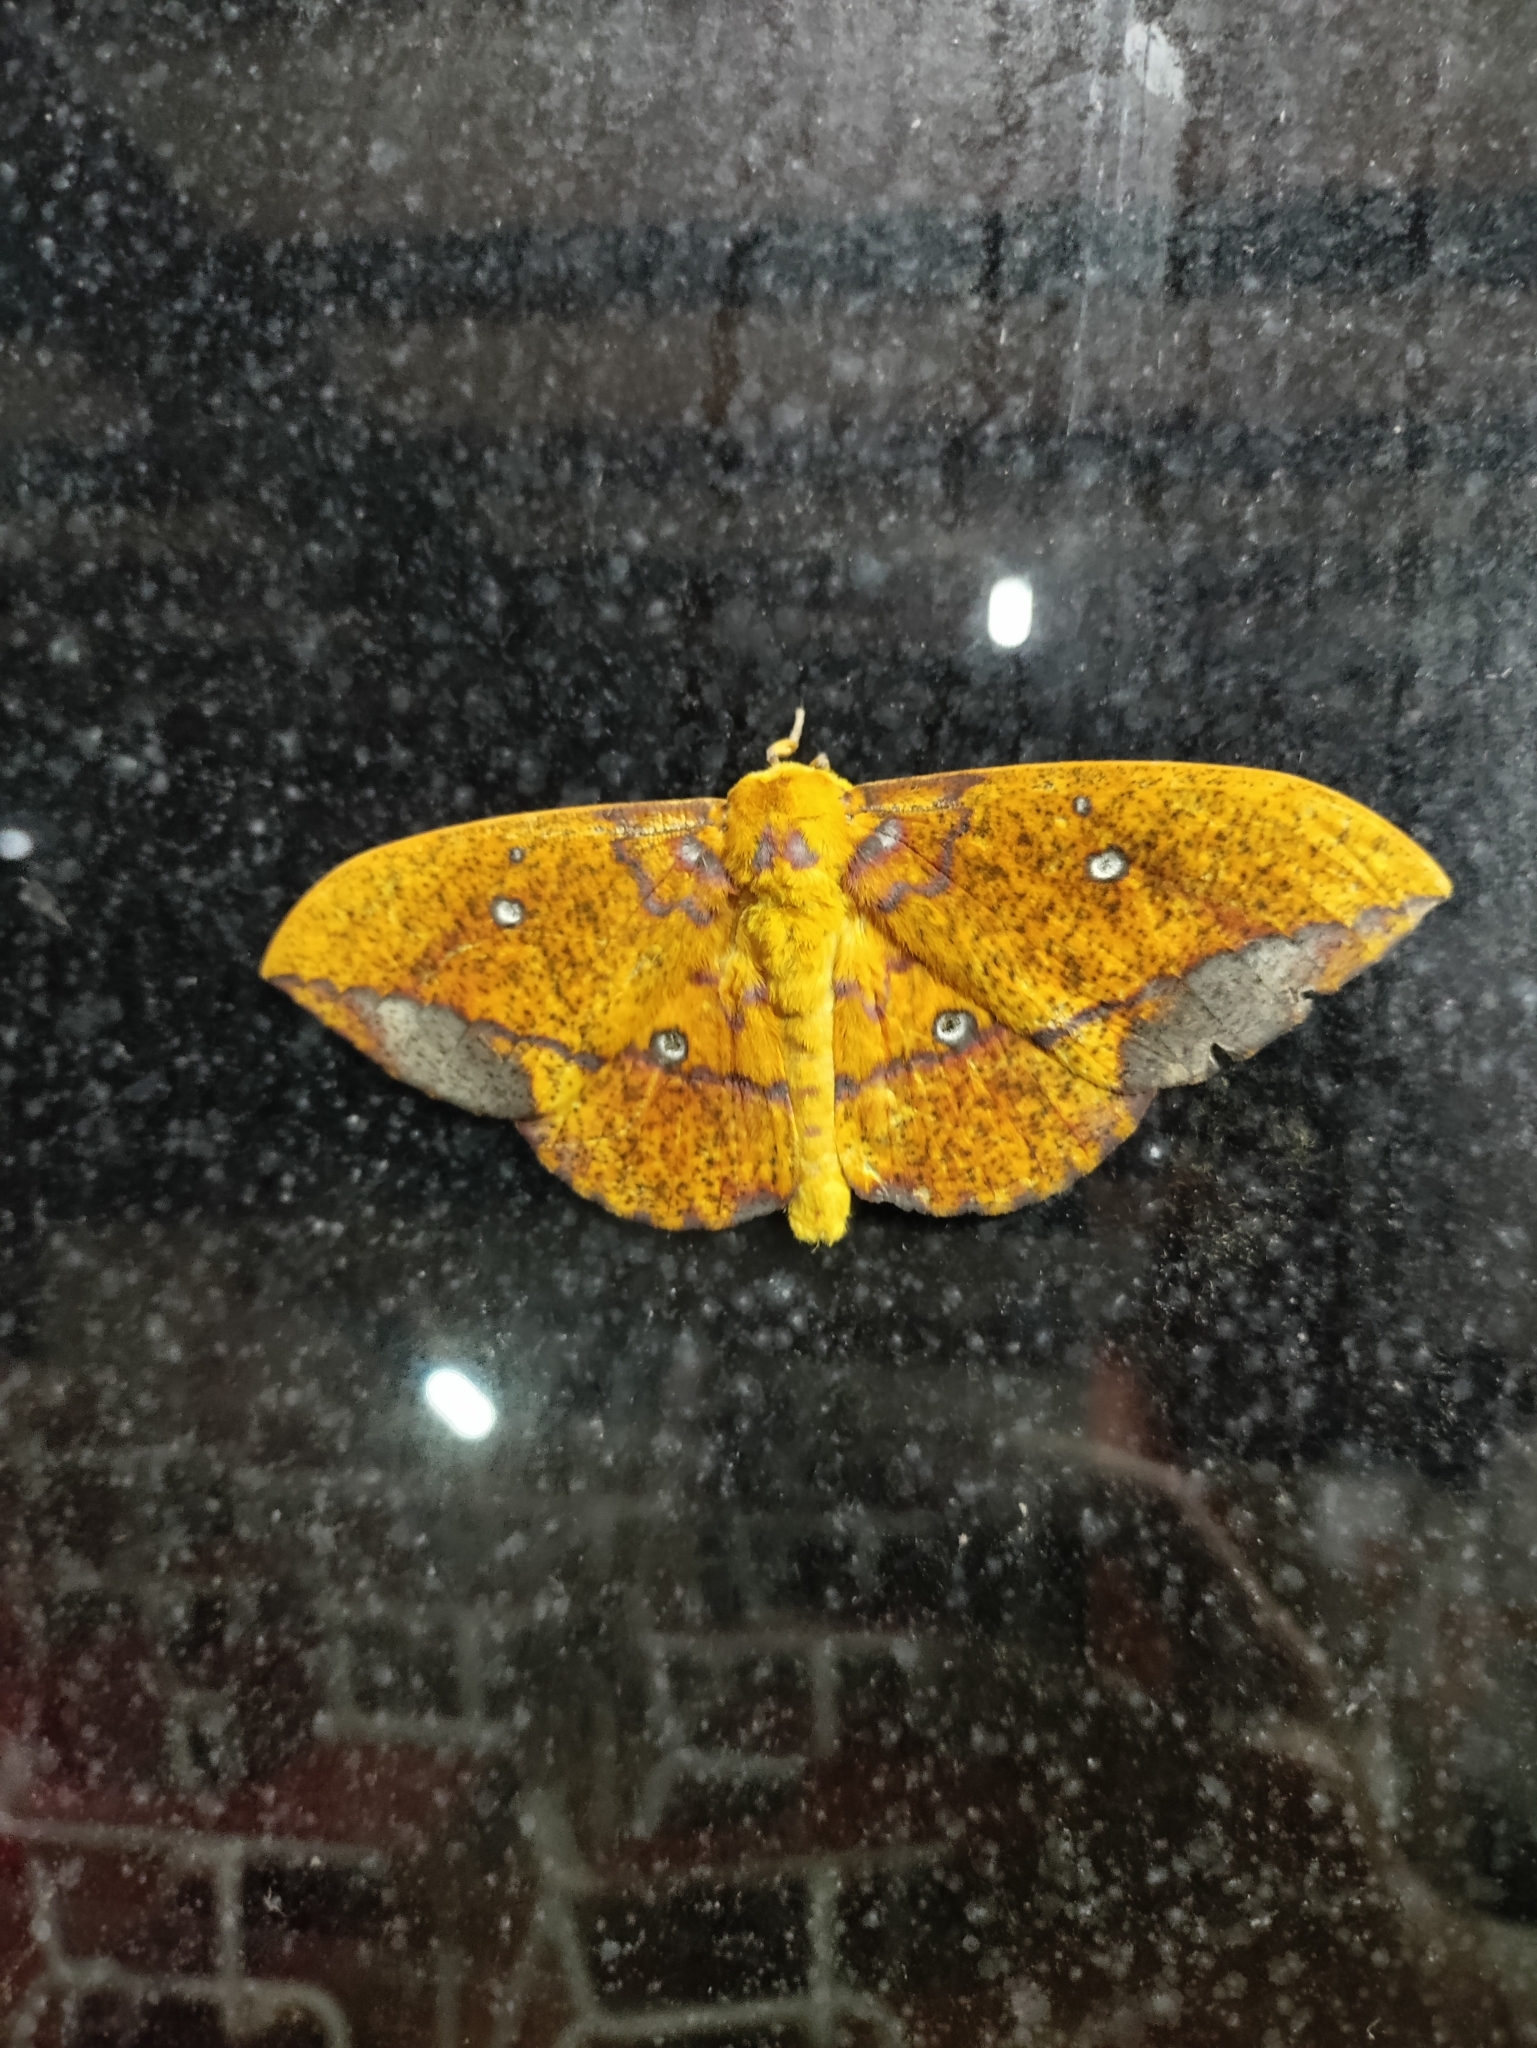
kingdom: Animalia
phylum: Arthropoda
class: Insecta
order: Lepidoptera
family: Saturniidae
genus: Eacles
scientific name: Eacles penelope
